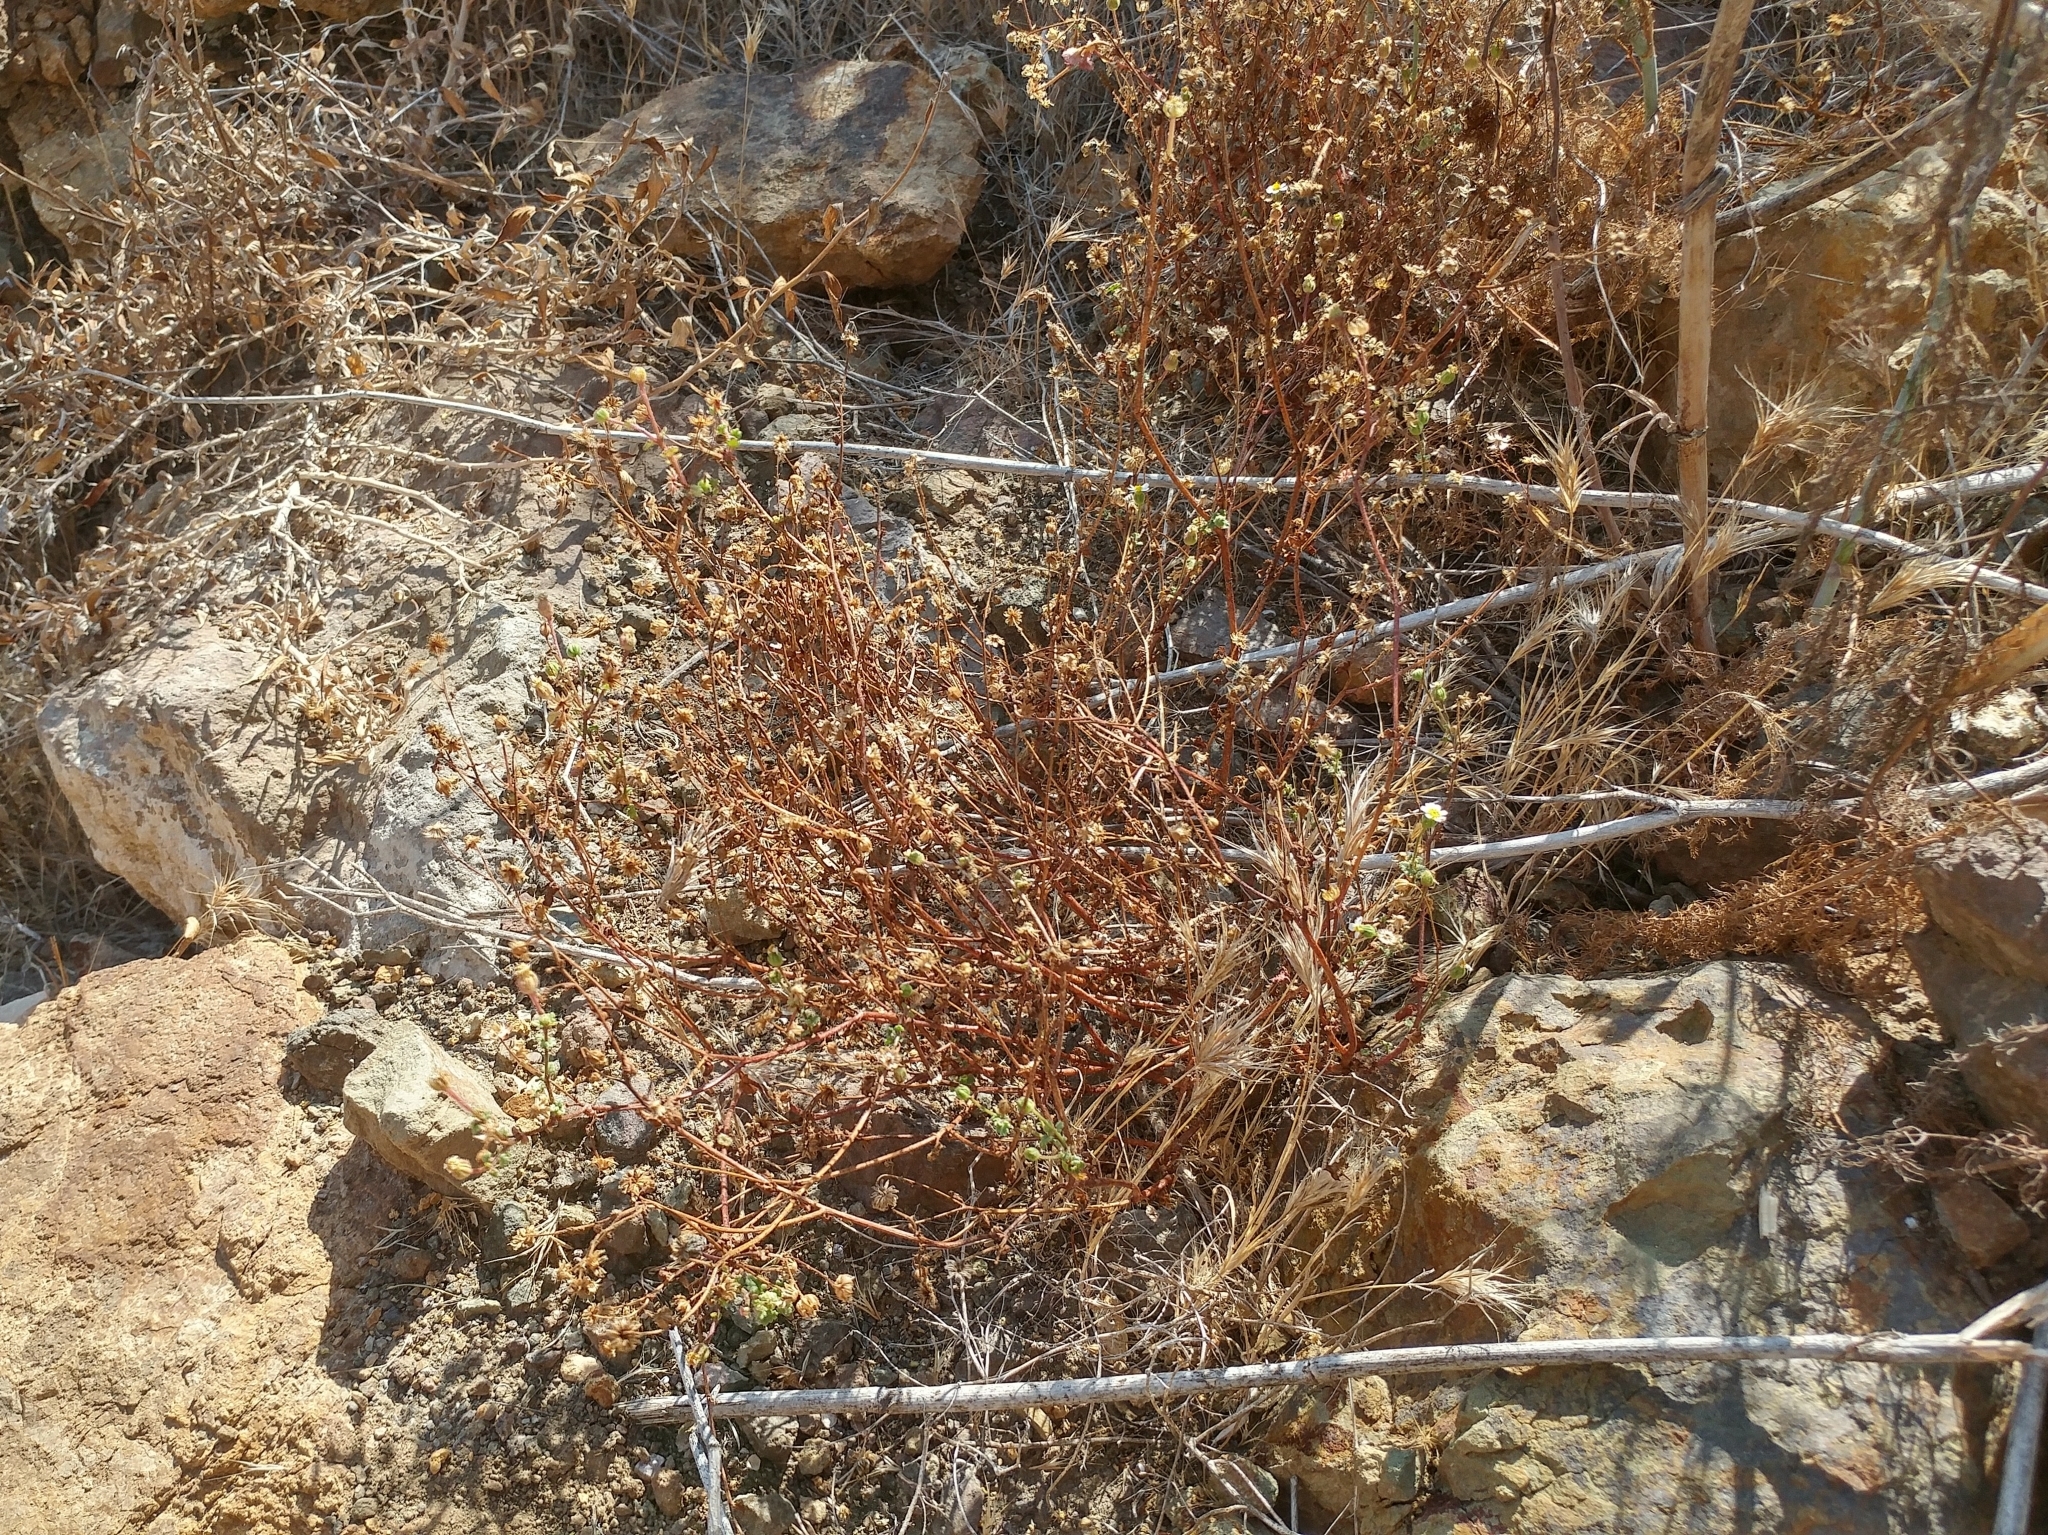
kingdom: Plantae
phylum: Tracheophyta
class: Magnoliopsida
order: Asterales
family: Asteraceae
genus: Laphamia
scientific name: Laphamia emoryi
